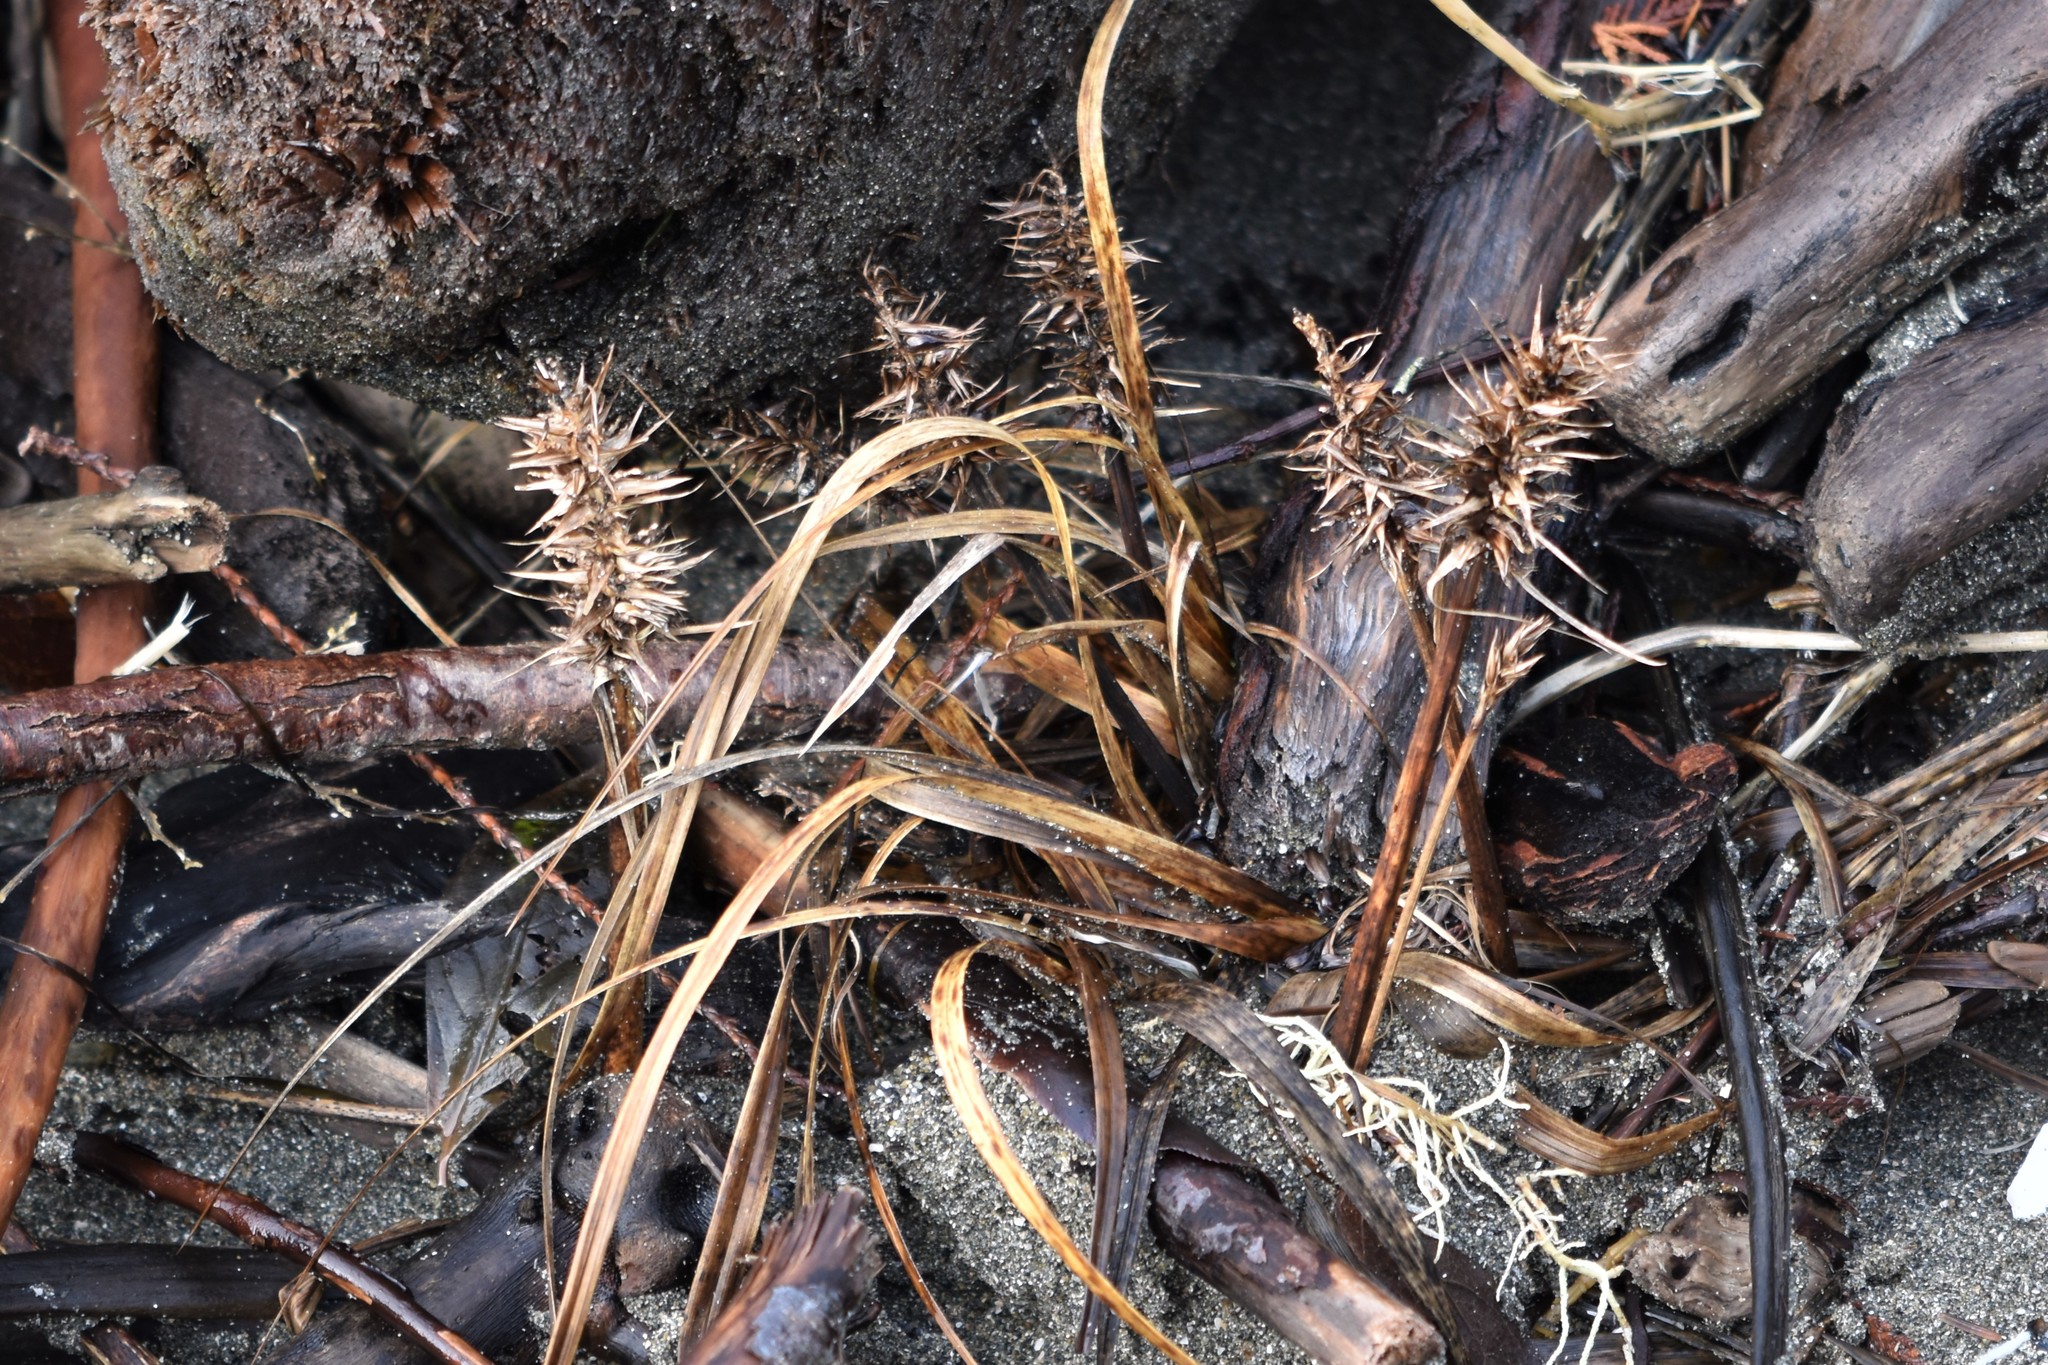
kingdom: Plantae
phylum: Tracheophyta
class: Liliopsida
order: Poales
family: Cyperaceae
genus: Carex
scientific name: Carex macrocephala
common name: Large-head sedge
